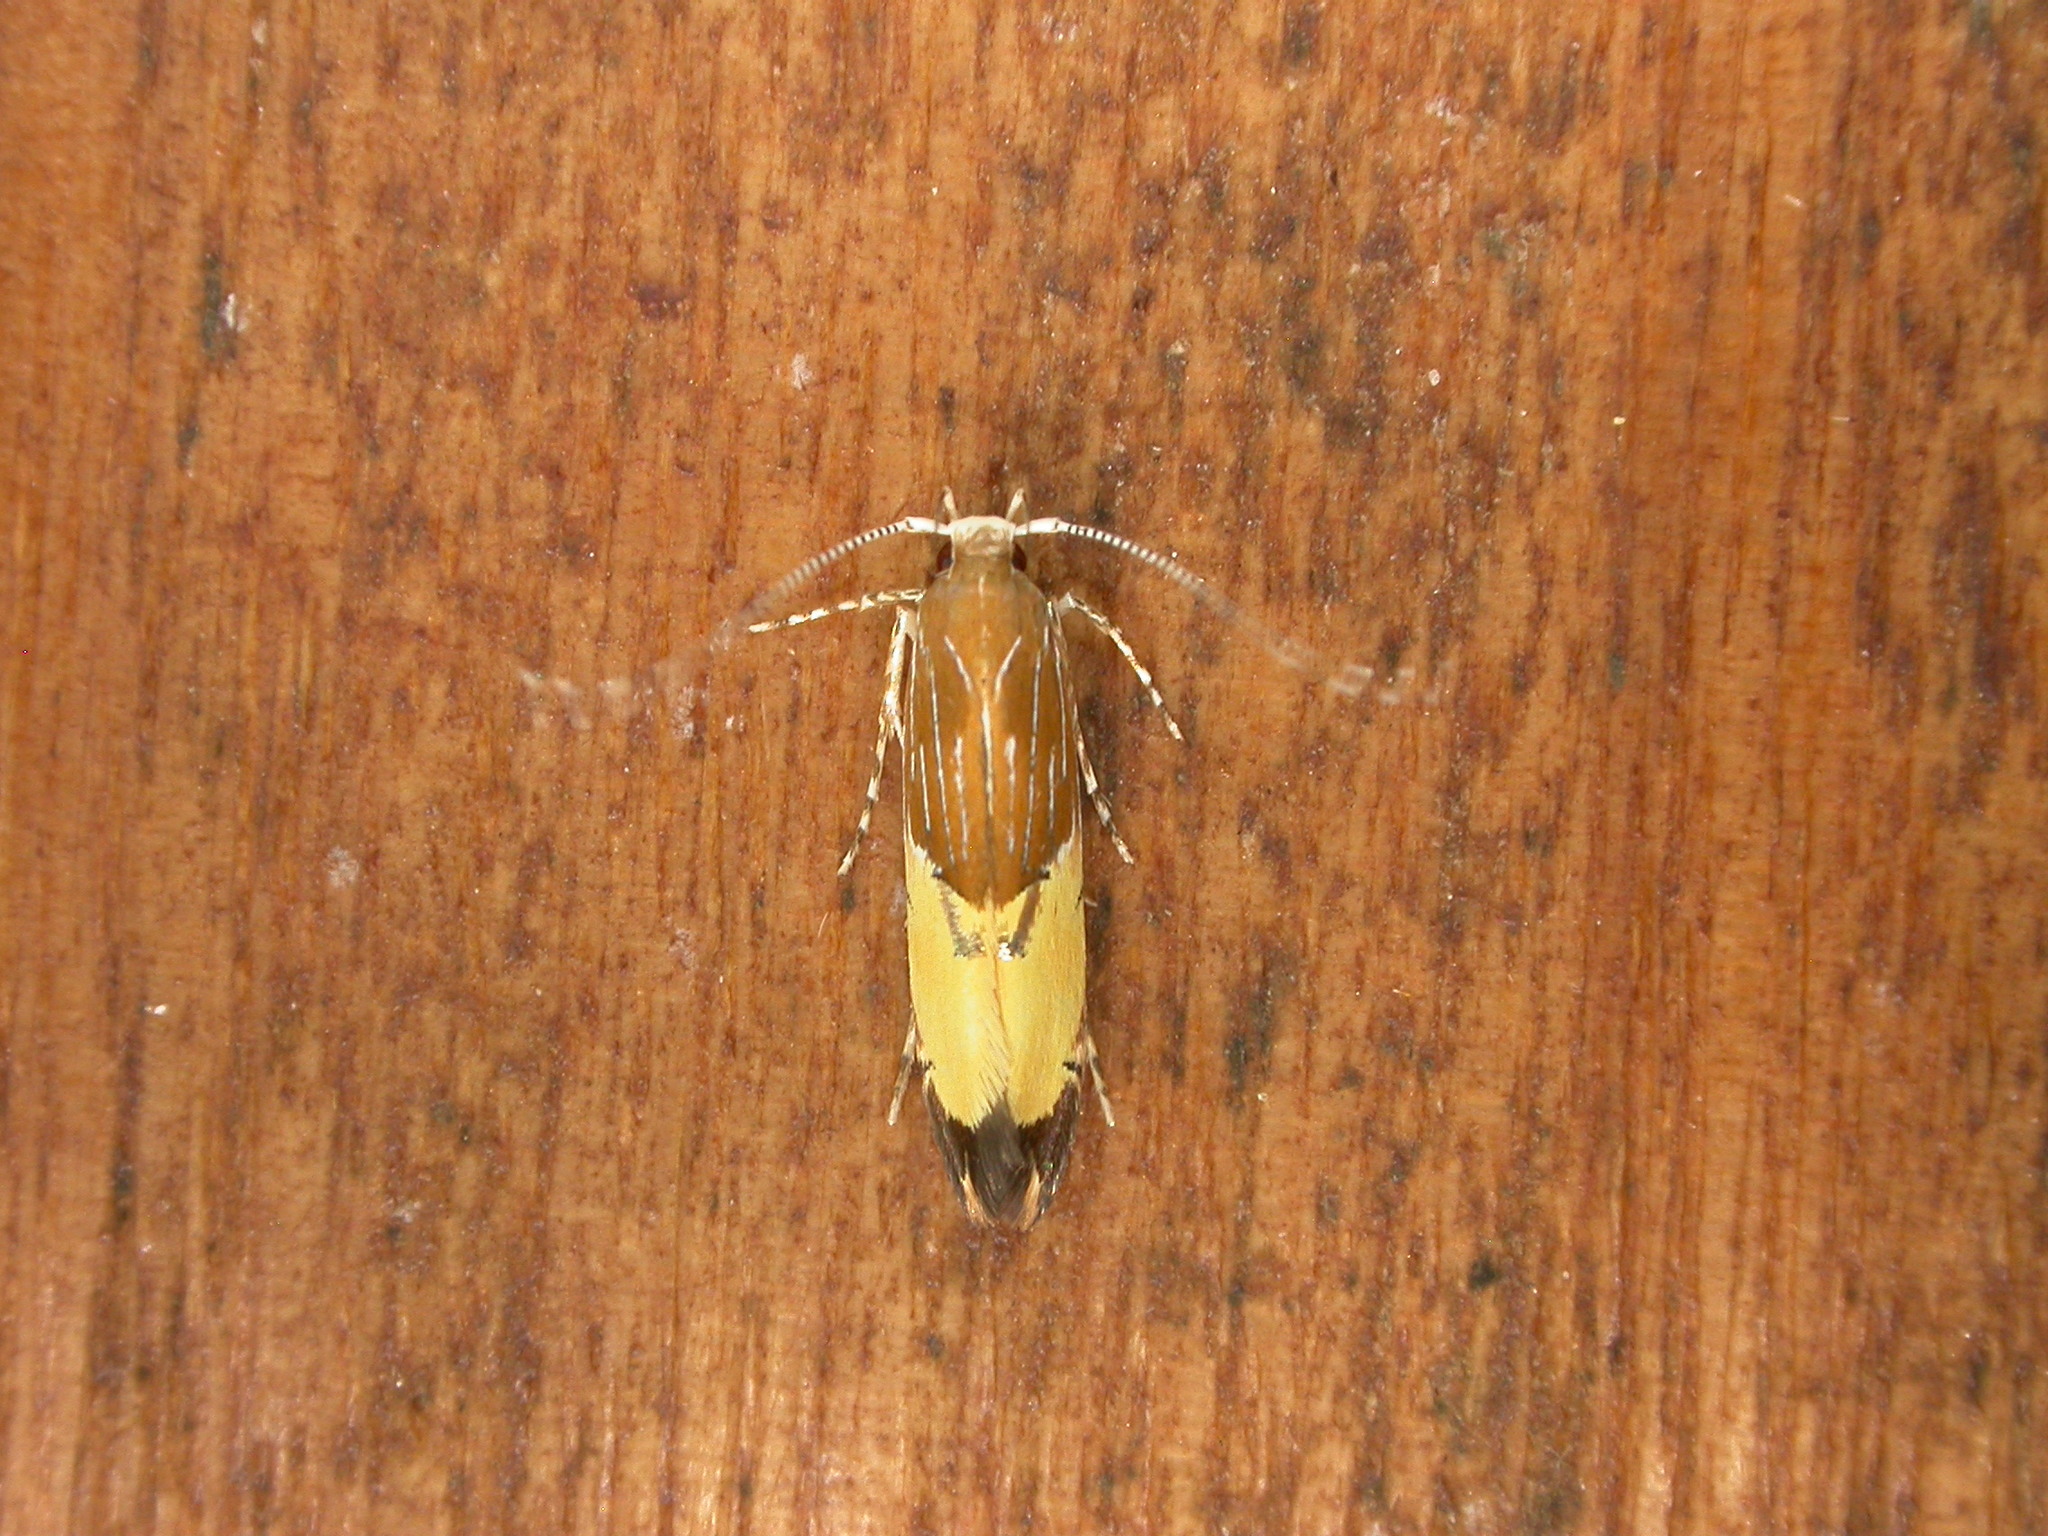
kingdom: Animalia
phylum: Arthropoda
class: Insecta
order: Lepidoptera
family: Cosmopterigidae
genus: Labdia
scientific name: Labdia deliciosella
